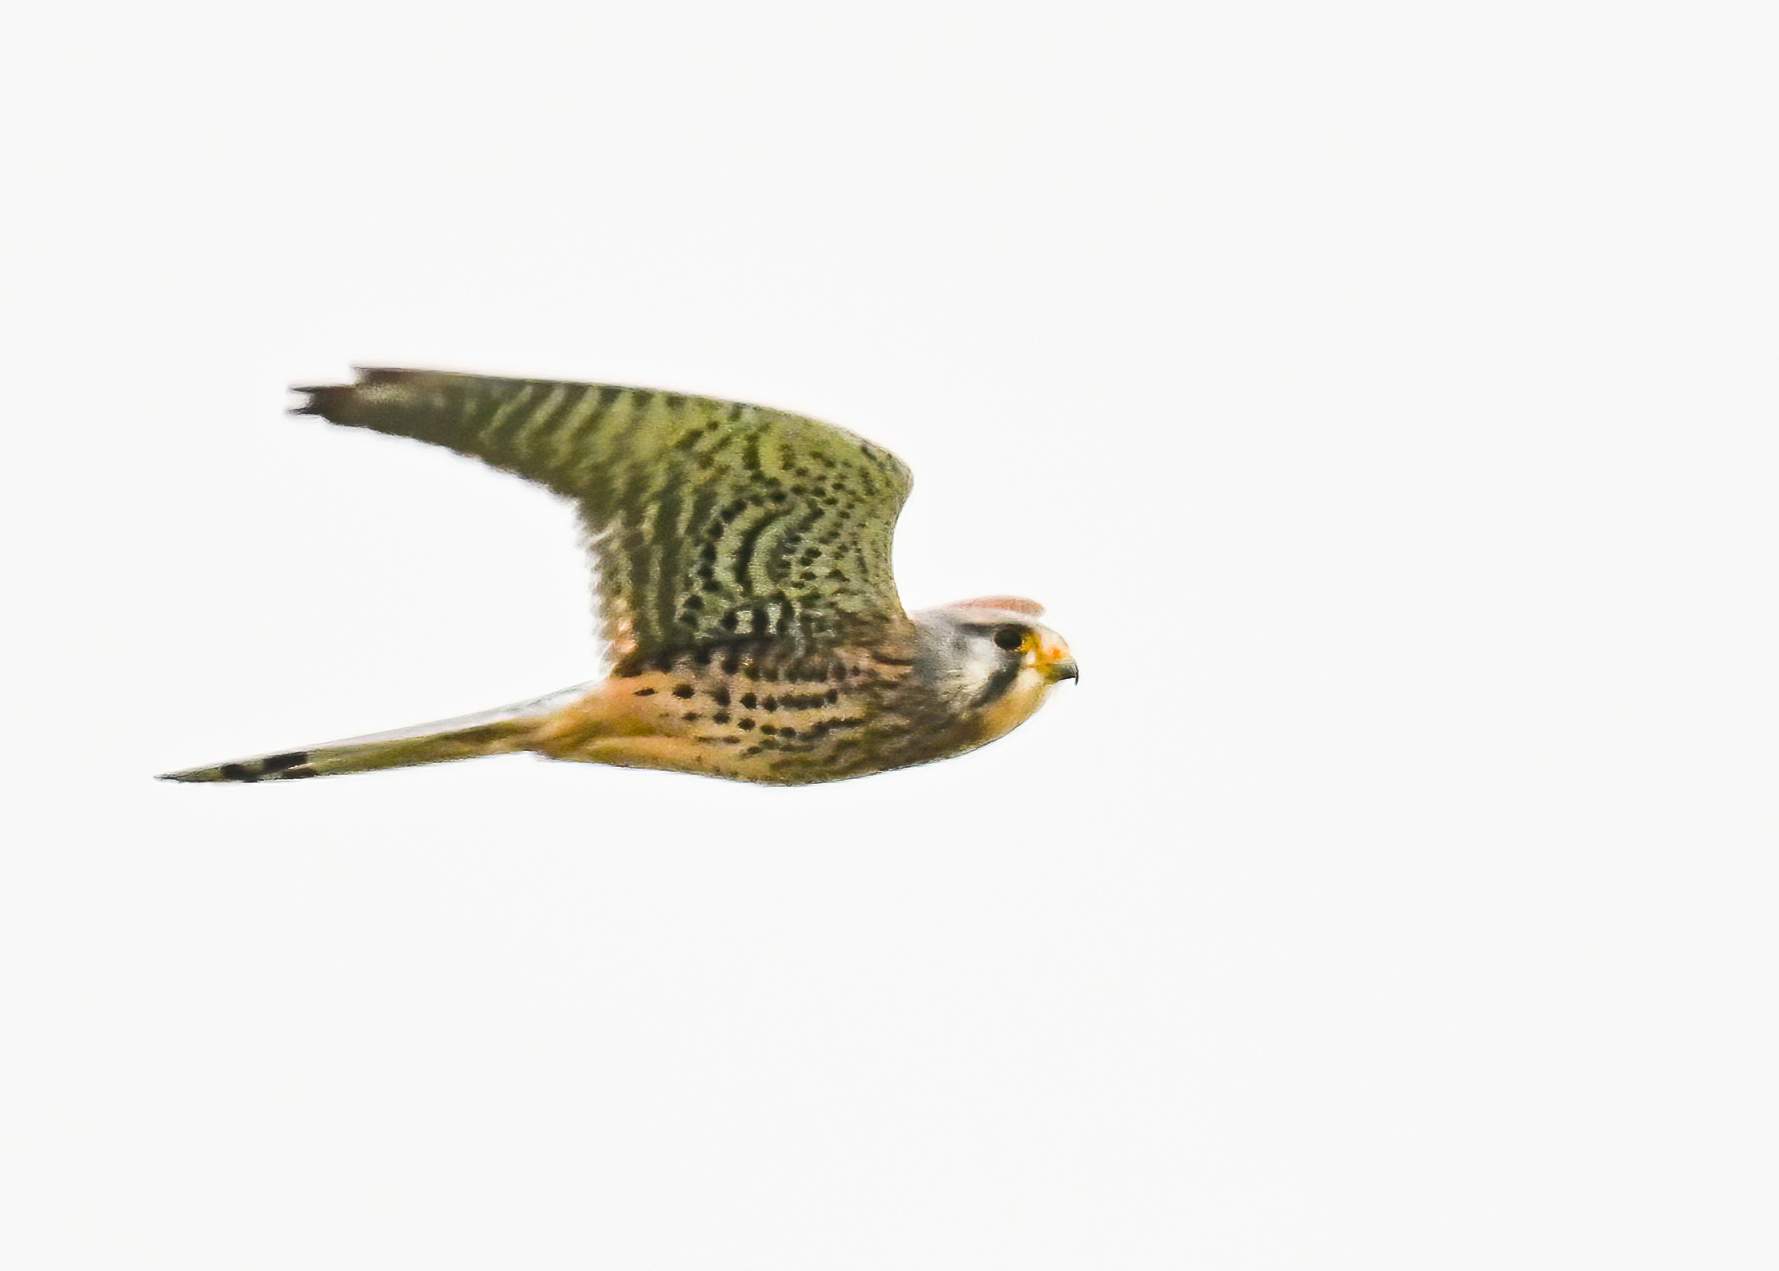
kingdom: Animalia
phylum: Chordata
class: Aves
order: Falconiformes
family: Falconidae
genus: Falco
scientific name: Falco tinnunculus
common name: Common kestrel
